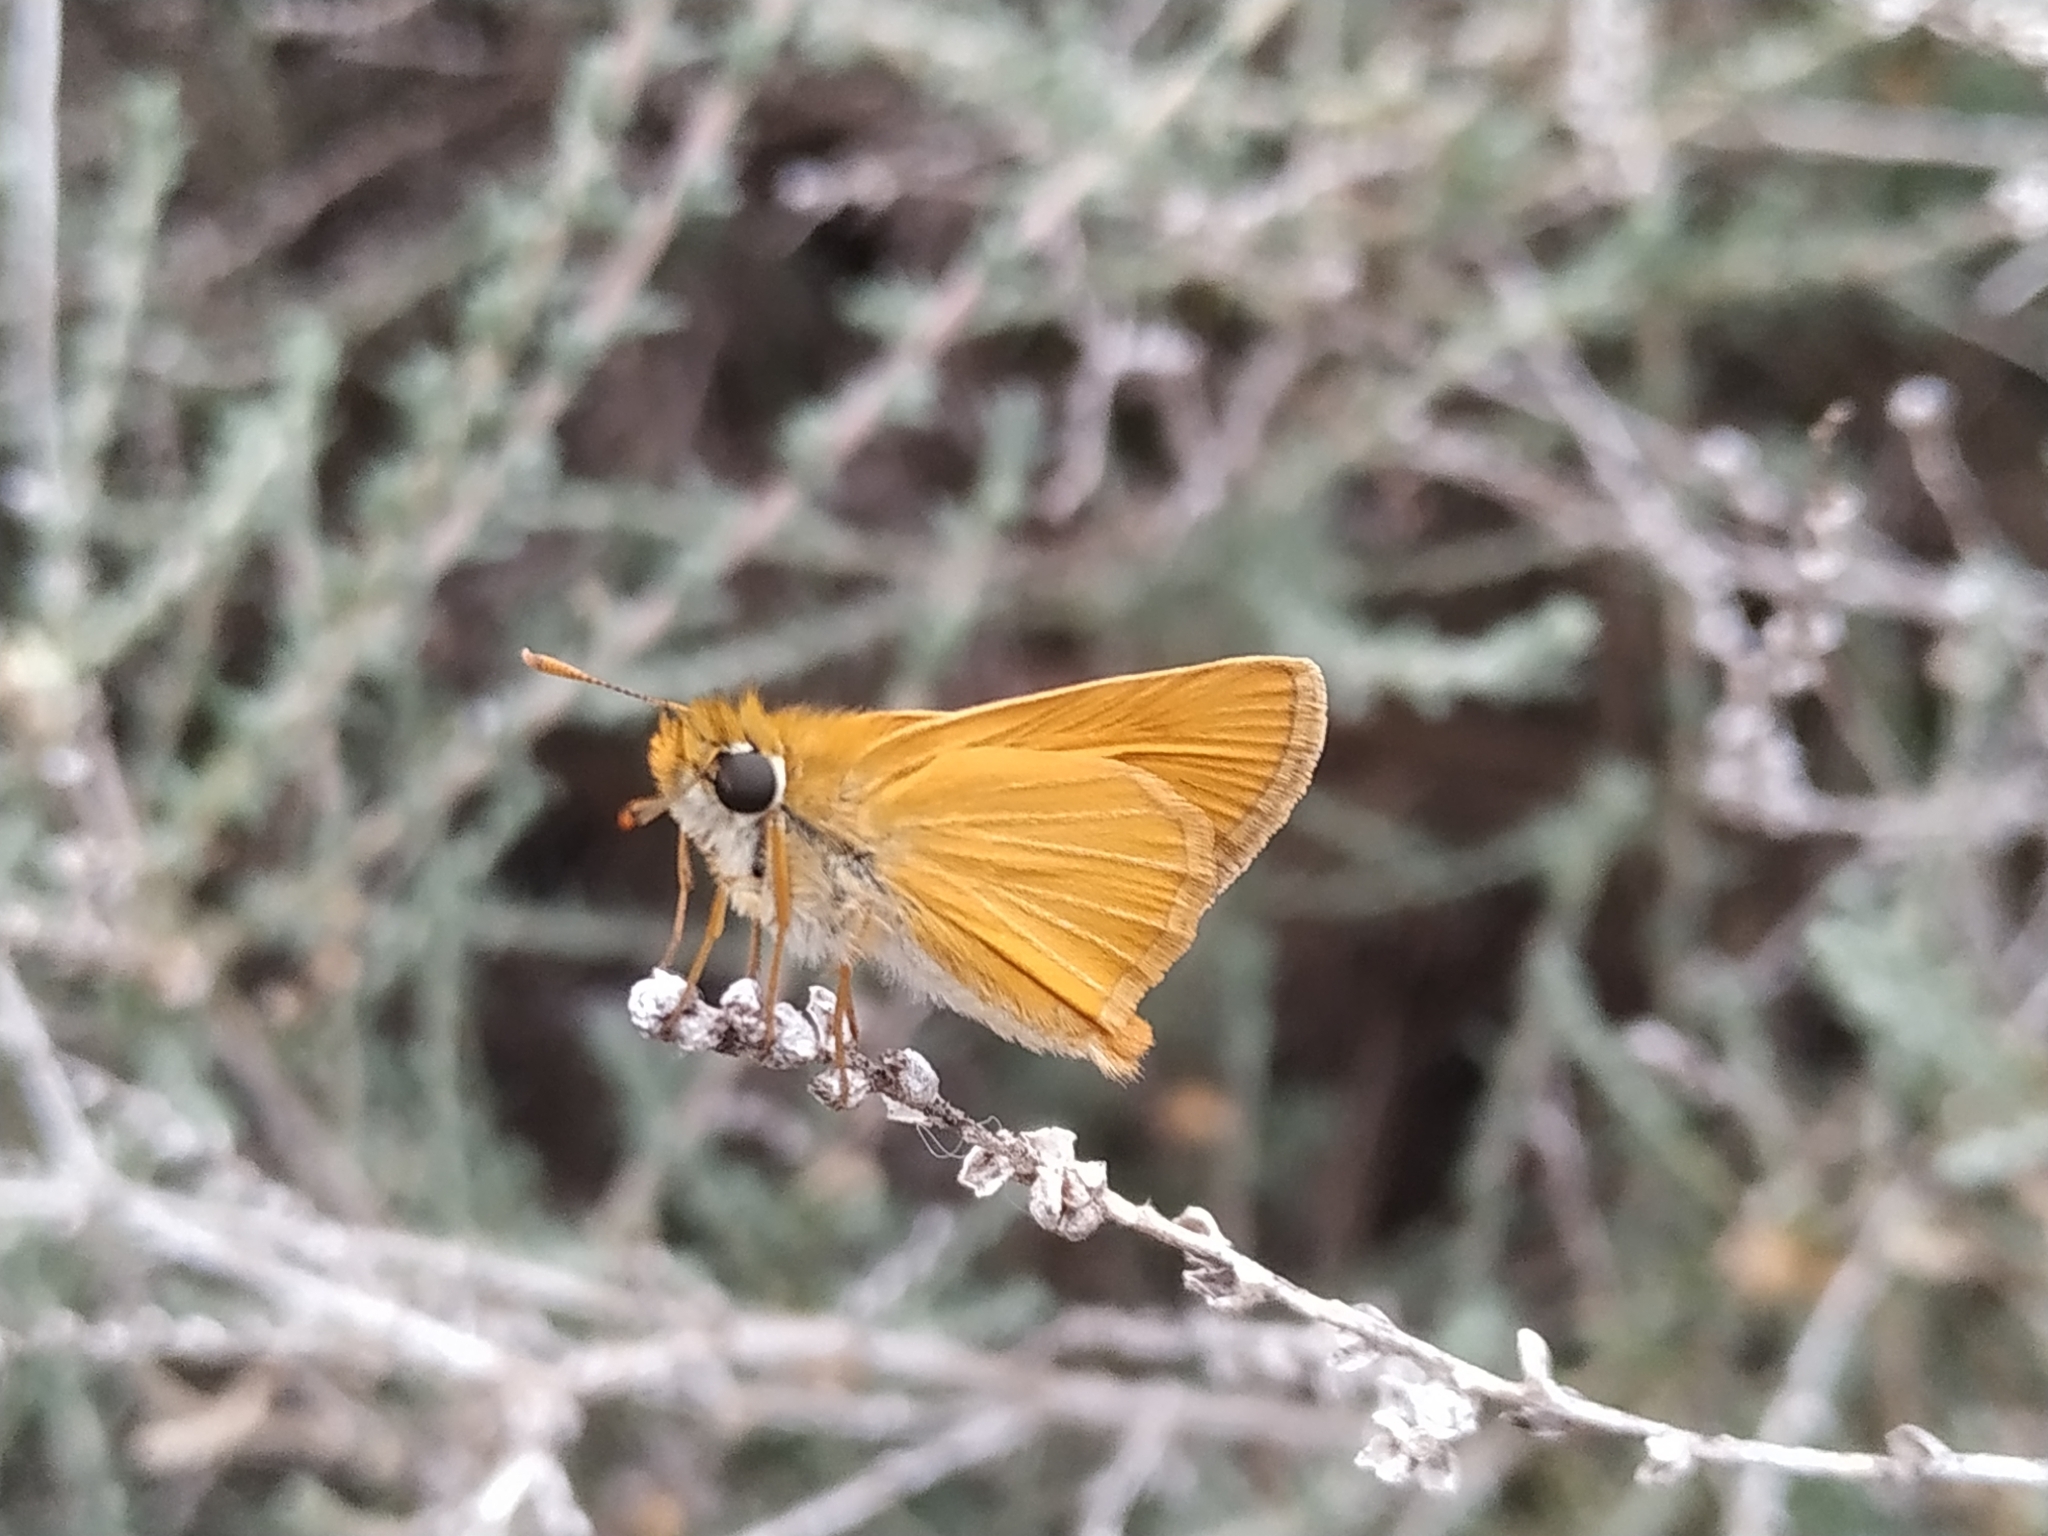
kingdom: Animalia
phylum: Arthropoda
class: Insecta
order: Lepidoptera
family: Hesperiidae
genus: Thymelicus
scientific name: Thymelicus acteon
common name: Lulworth skipper
